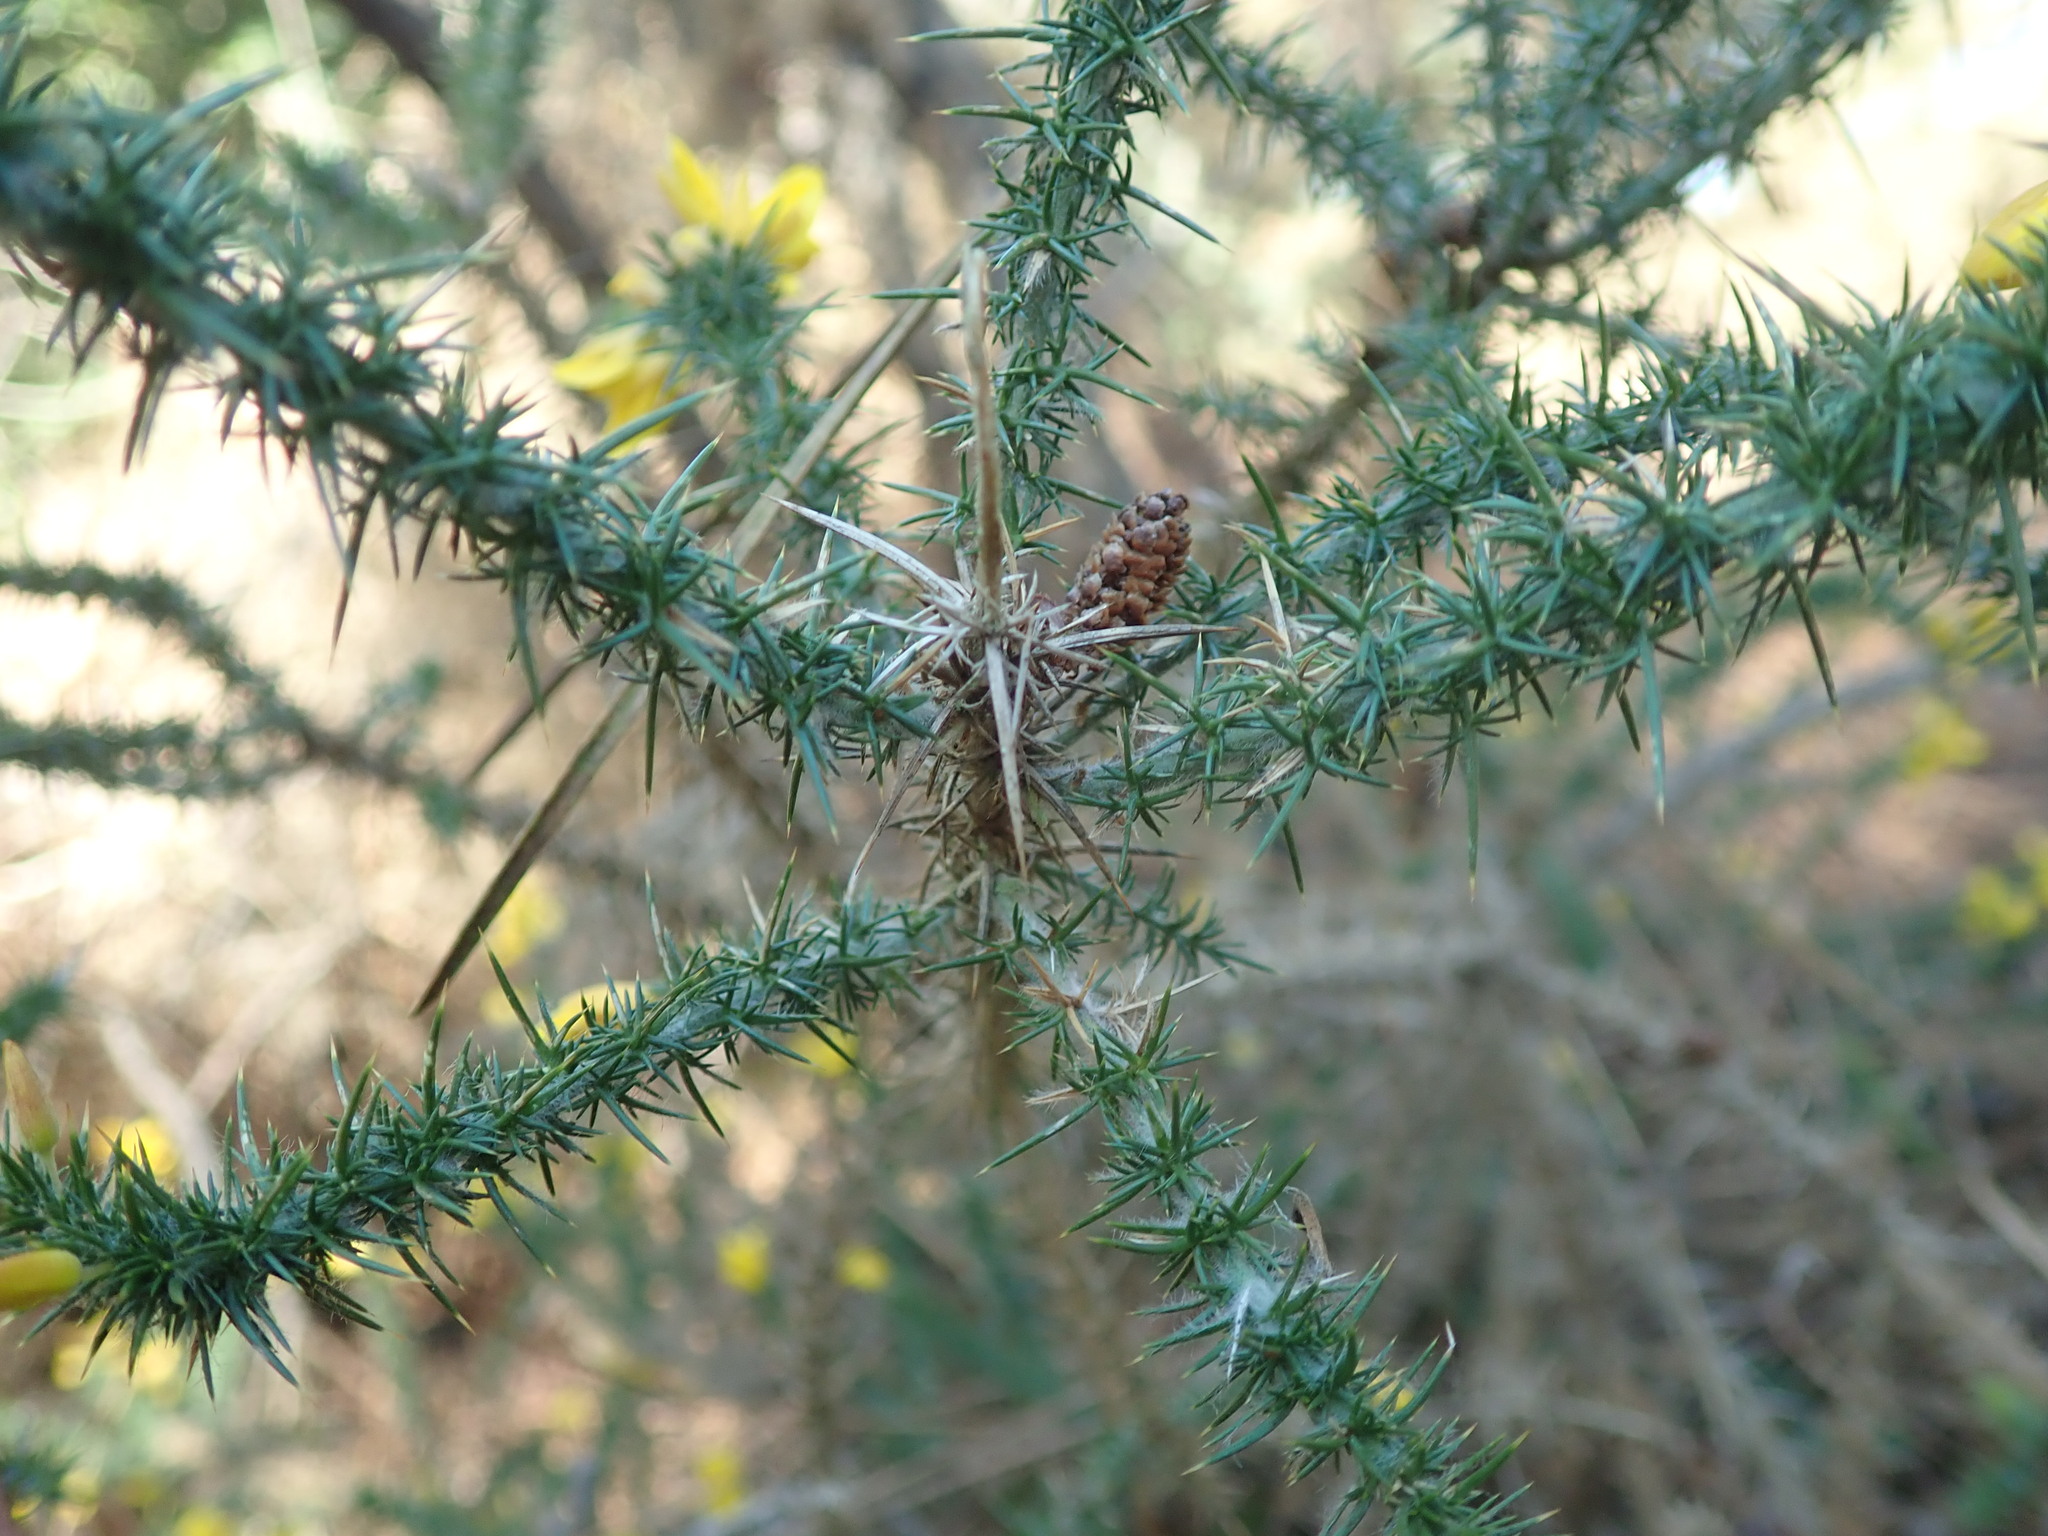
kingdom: Plantae
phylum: Tracheophyta
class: Magnoliopsida
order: Fabales
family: Fabaceae
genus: Ulex
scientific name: Ulex minor
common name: Dwarf gorse
